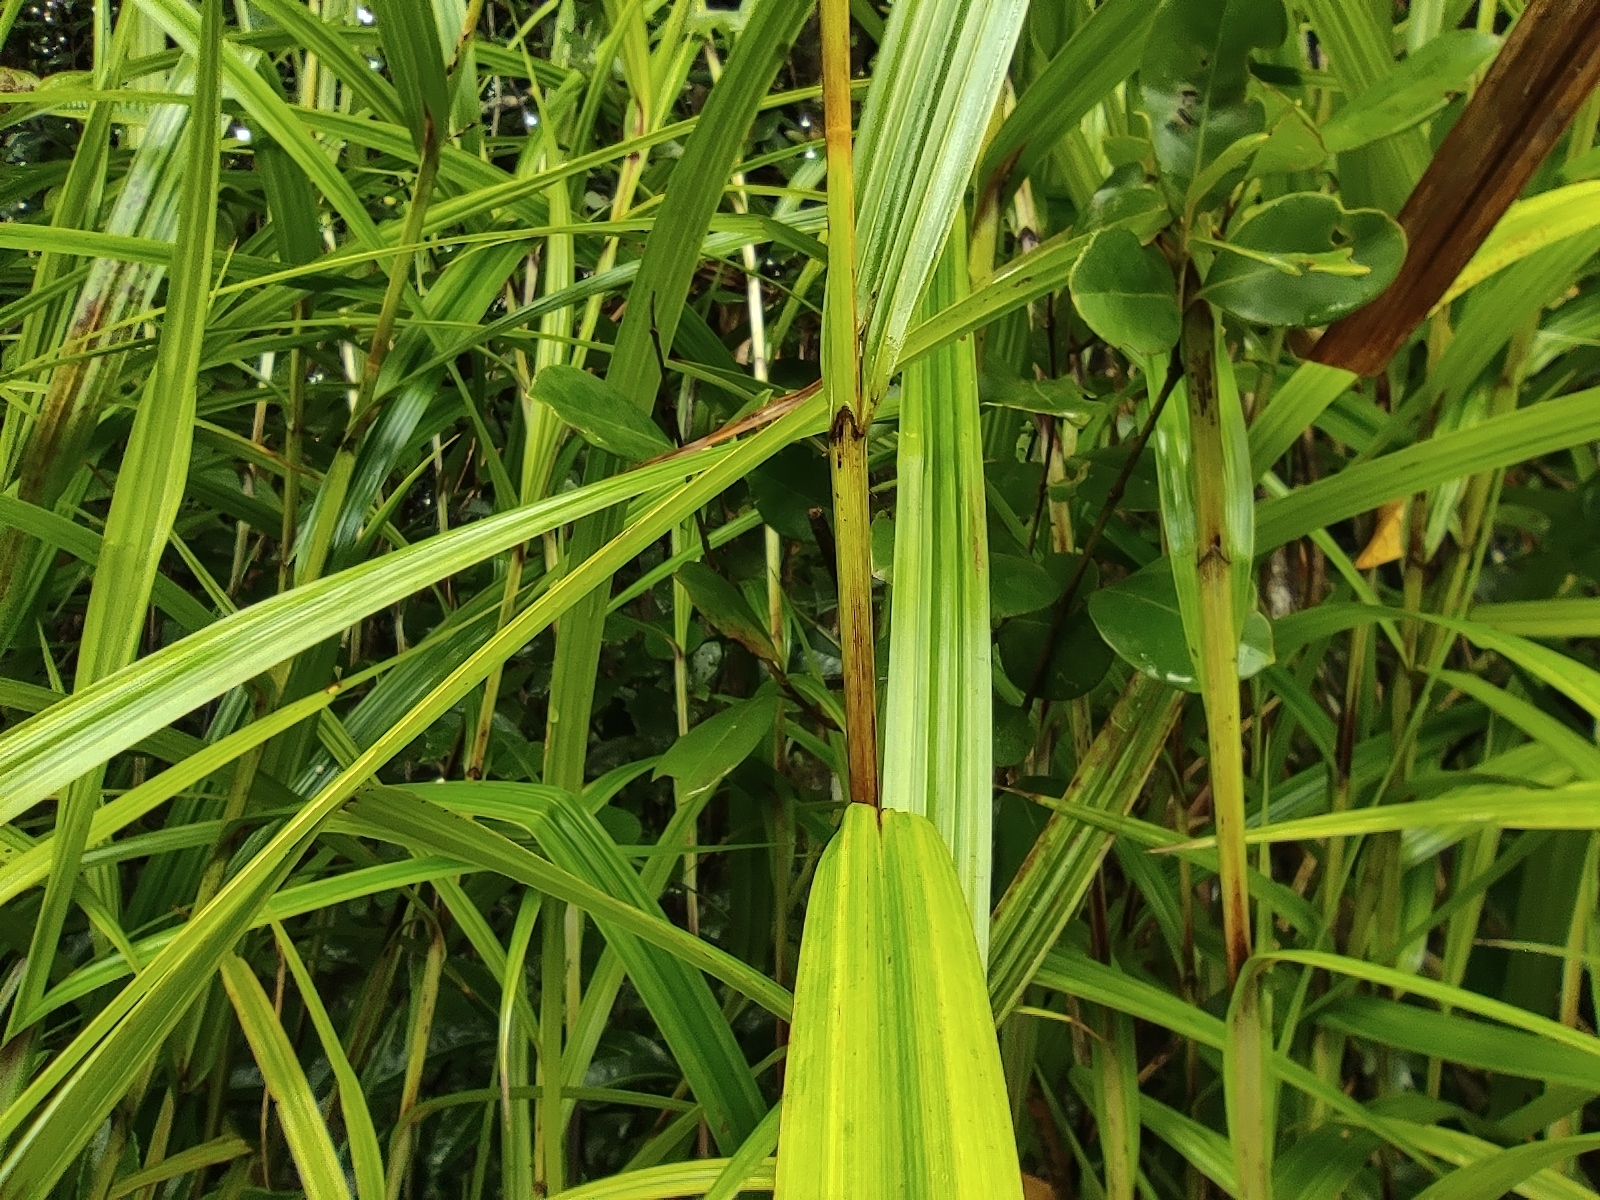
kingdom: Plantae
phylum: Tracheophyta
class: Liliopsida
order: Poales
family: Cyperaceae
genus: Scleria
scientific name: Scleria gaertneri
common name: Cortadera blanca
